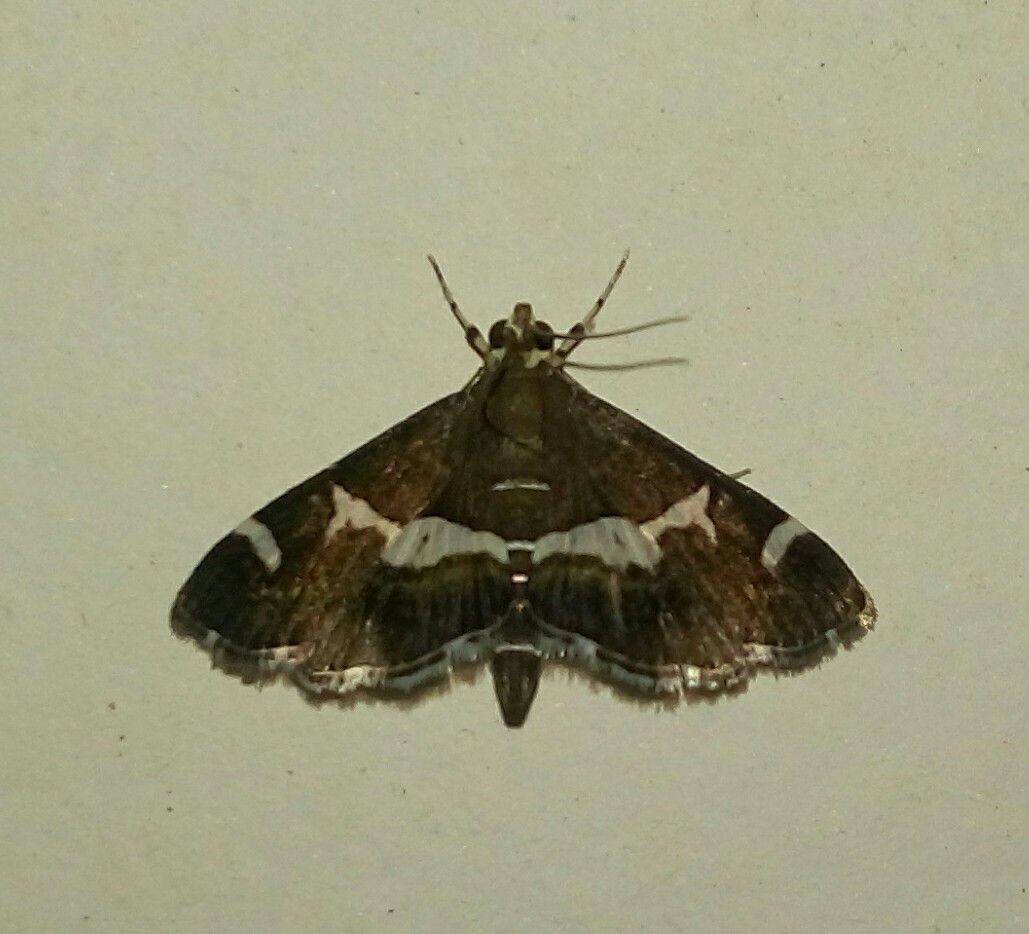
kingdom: Animalia
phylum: Arthropoda
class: Insecta
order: Lepidoptera
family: Crambidae
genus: Spoladea
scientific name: Spoladea recurvalis
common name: Beet webworm moth
